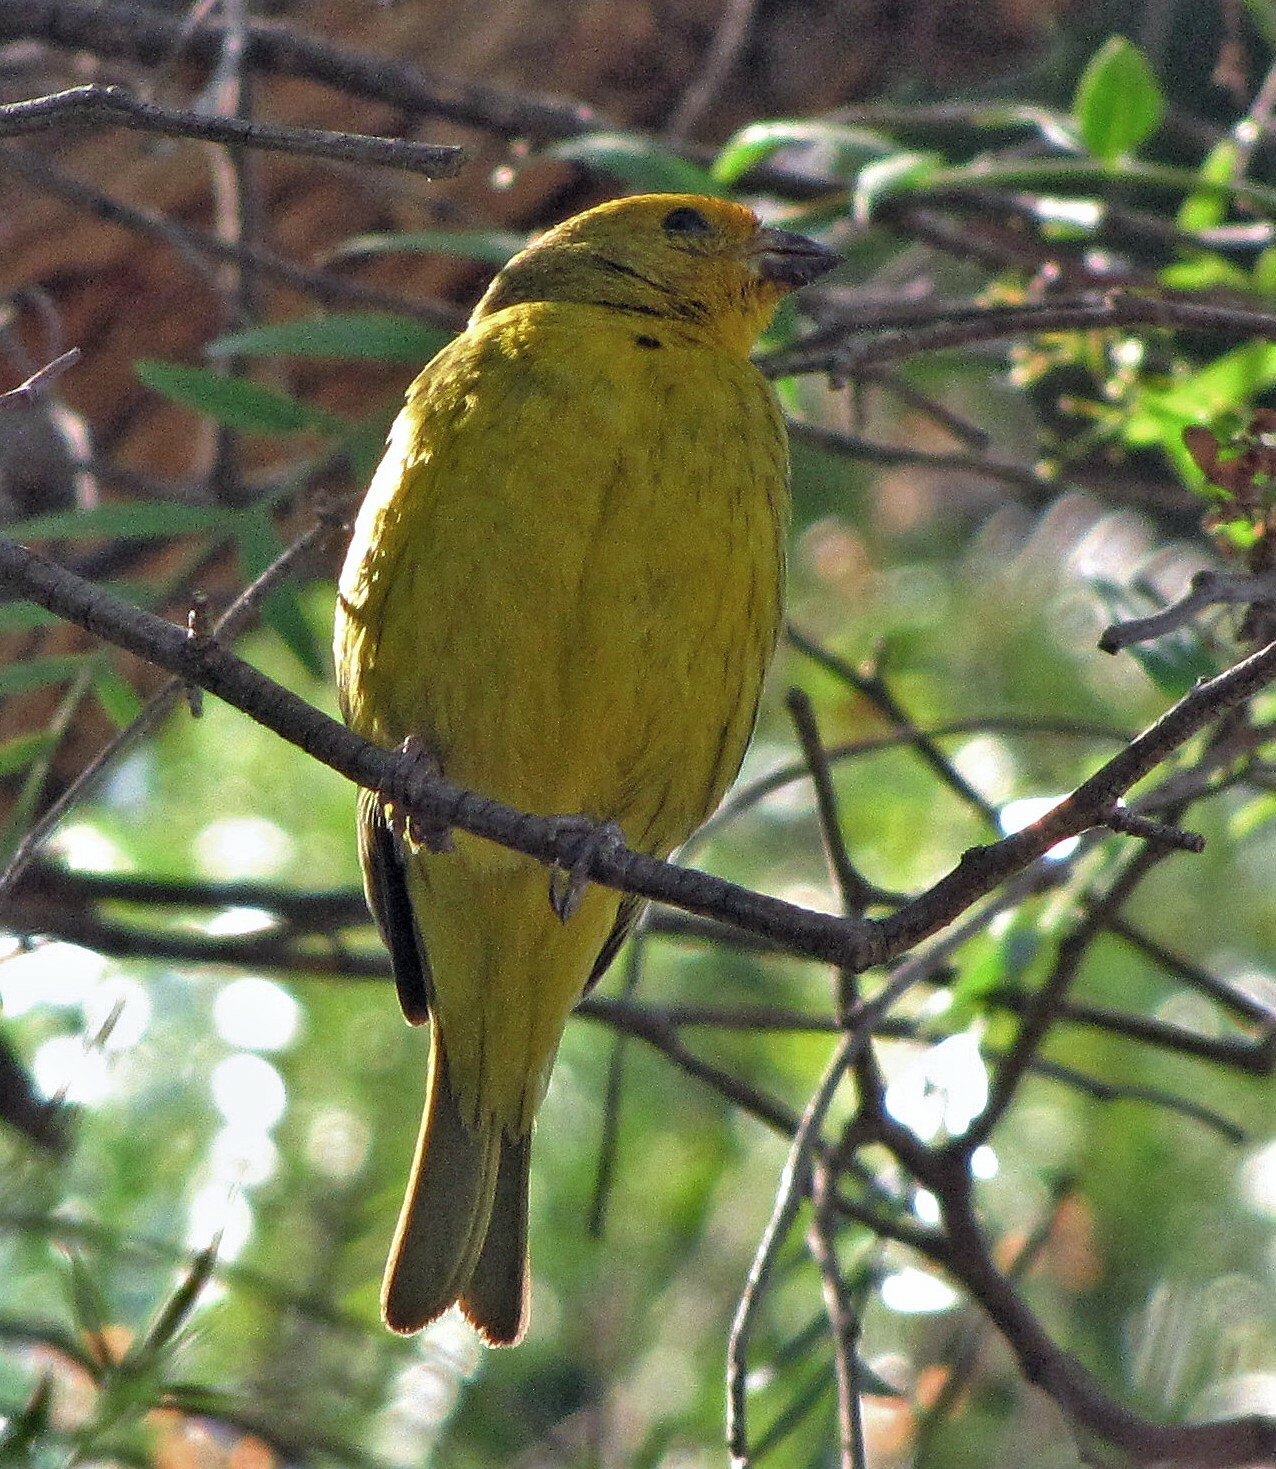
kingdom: Animalia
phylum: Chordata
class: Aves
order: Passeriformes
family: Thraupidae
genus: Sicalis
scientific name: Sicalis flaveola
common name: Saffron finch
